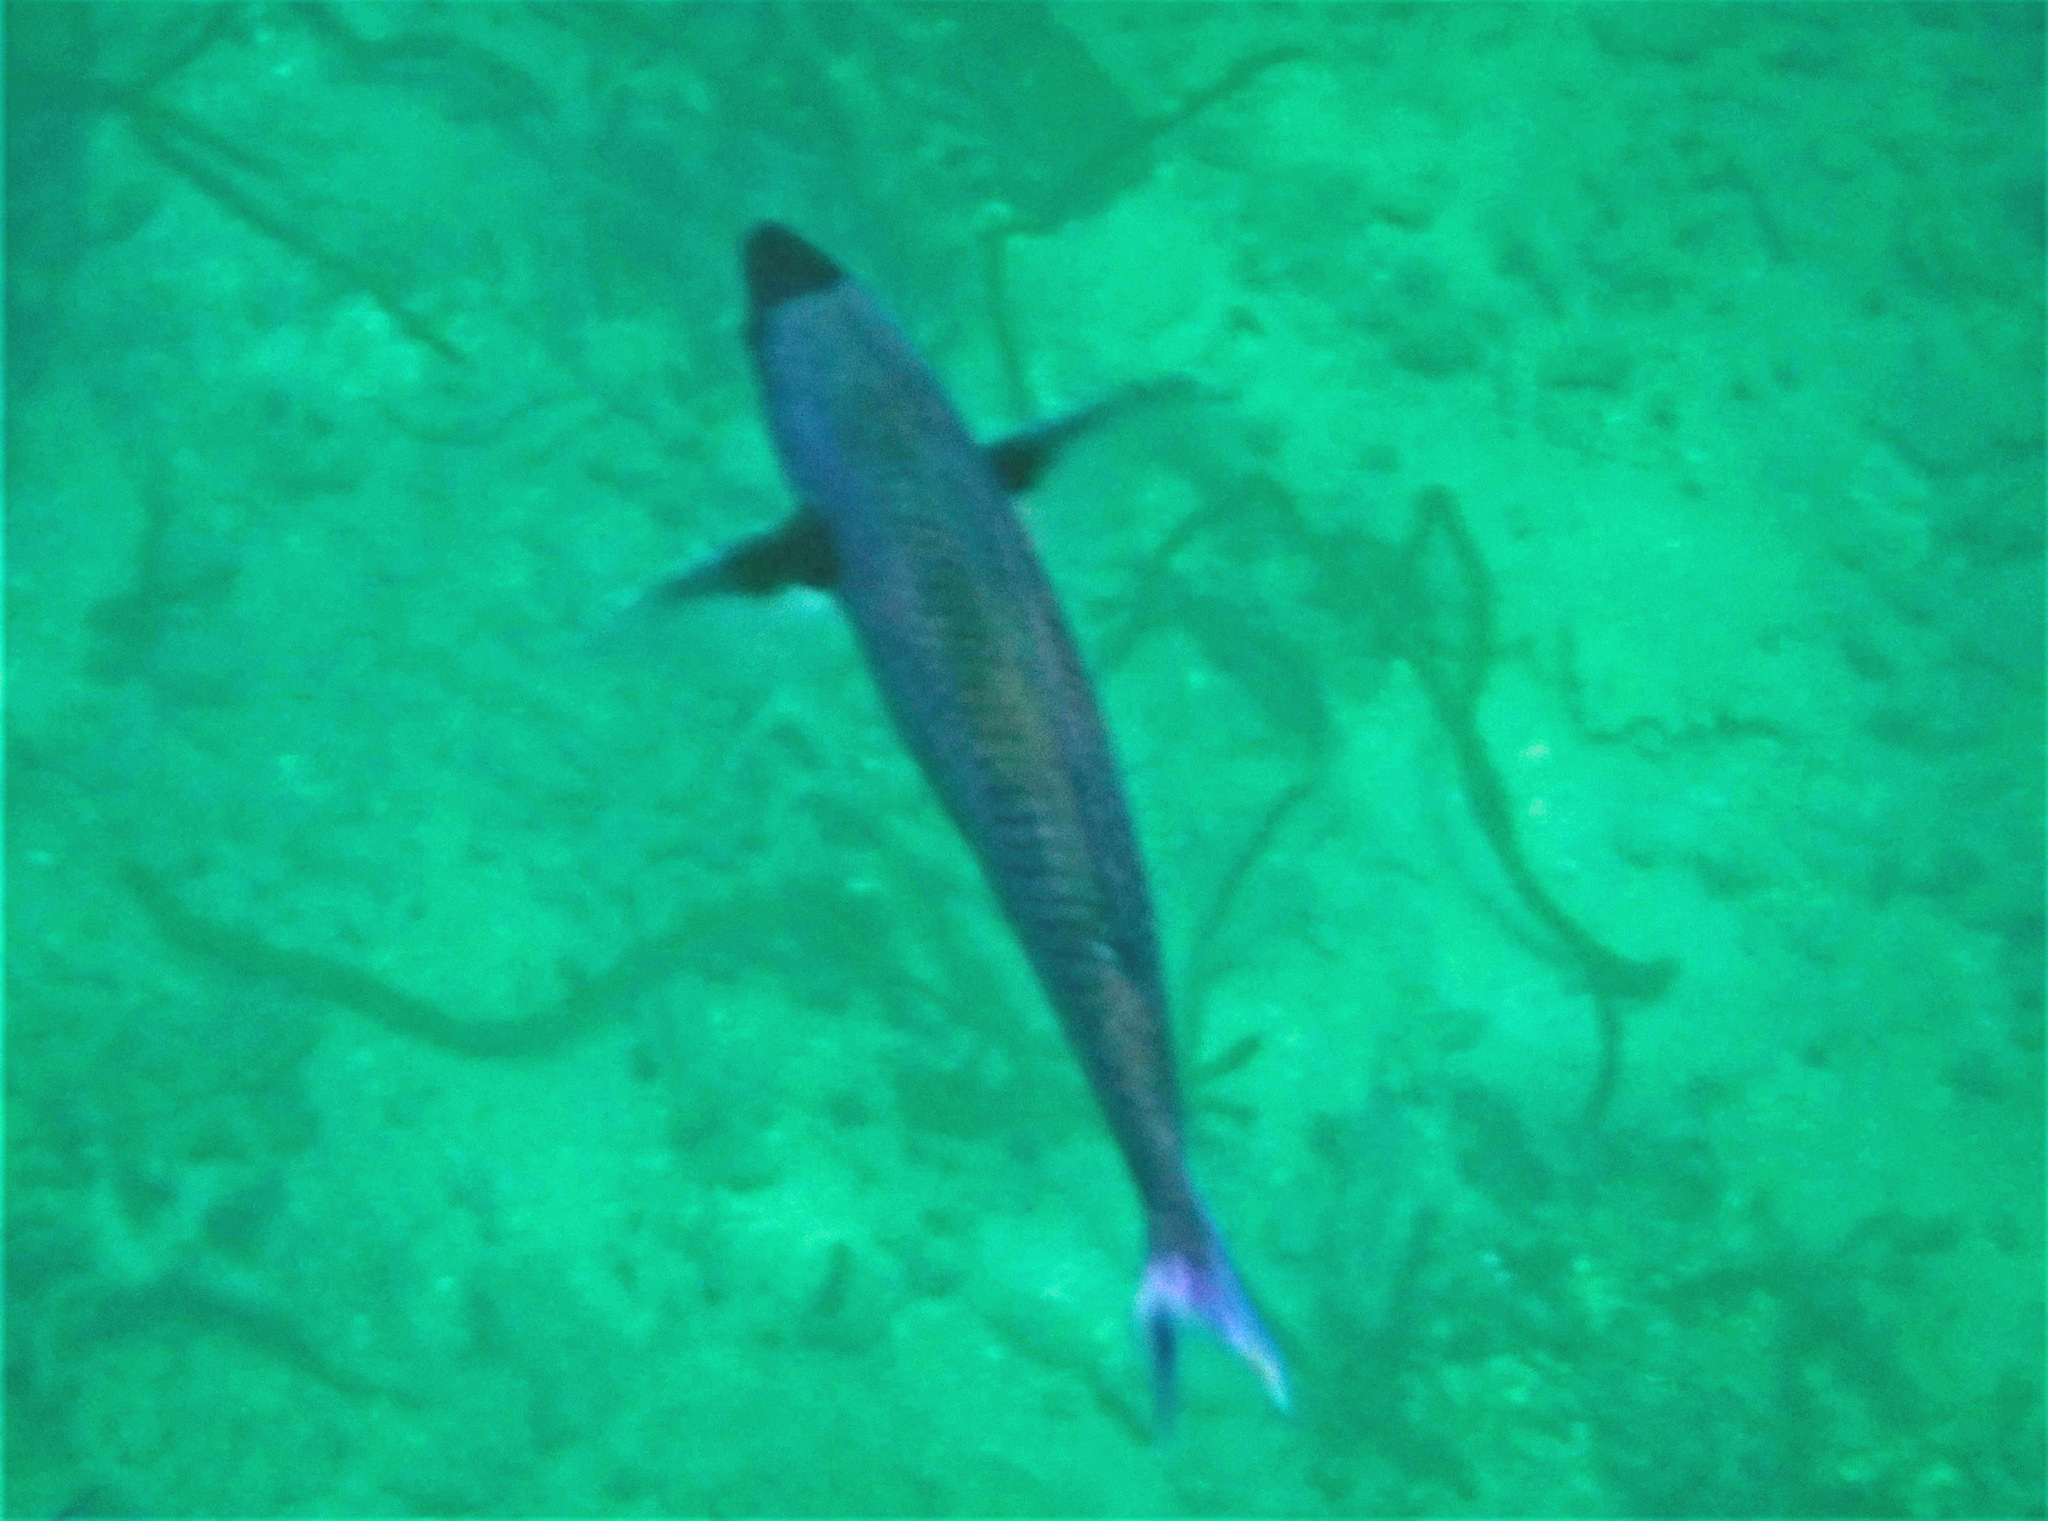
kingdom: Animalia
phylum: Chordata
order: Perciformes
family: Labridae
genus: Bodianus
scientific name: Bodianus
